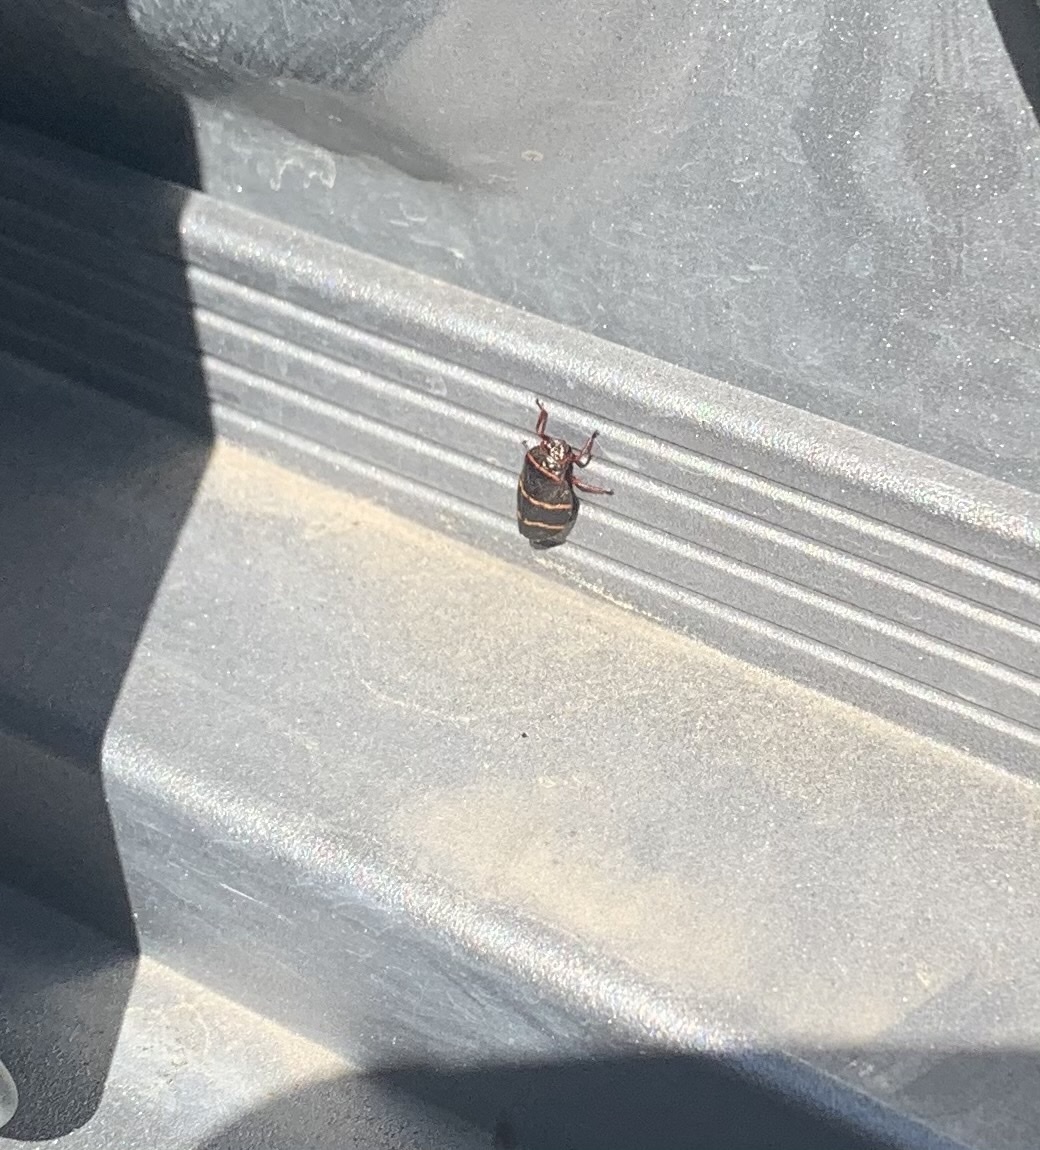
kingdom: Animalia
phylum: Arthropoda
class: Insecta
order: Hemiptera
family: Cercopidae
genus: Prosapia
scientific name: Prosapia bicincta
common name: Twolined spittlebug
